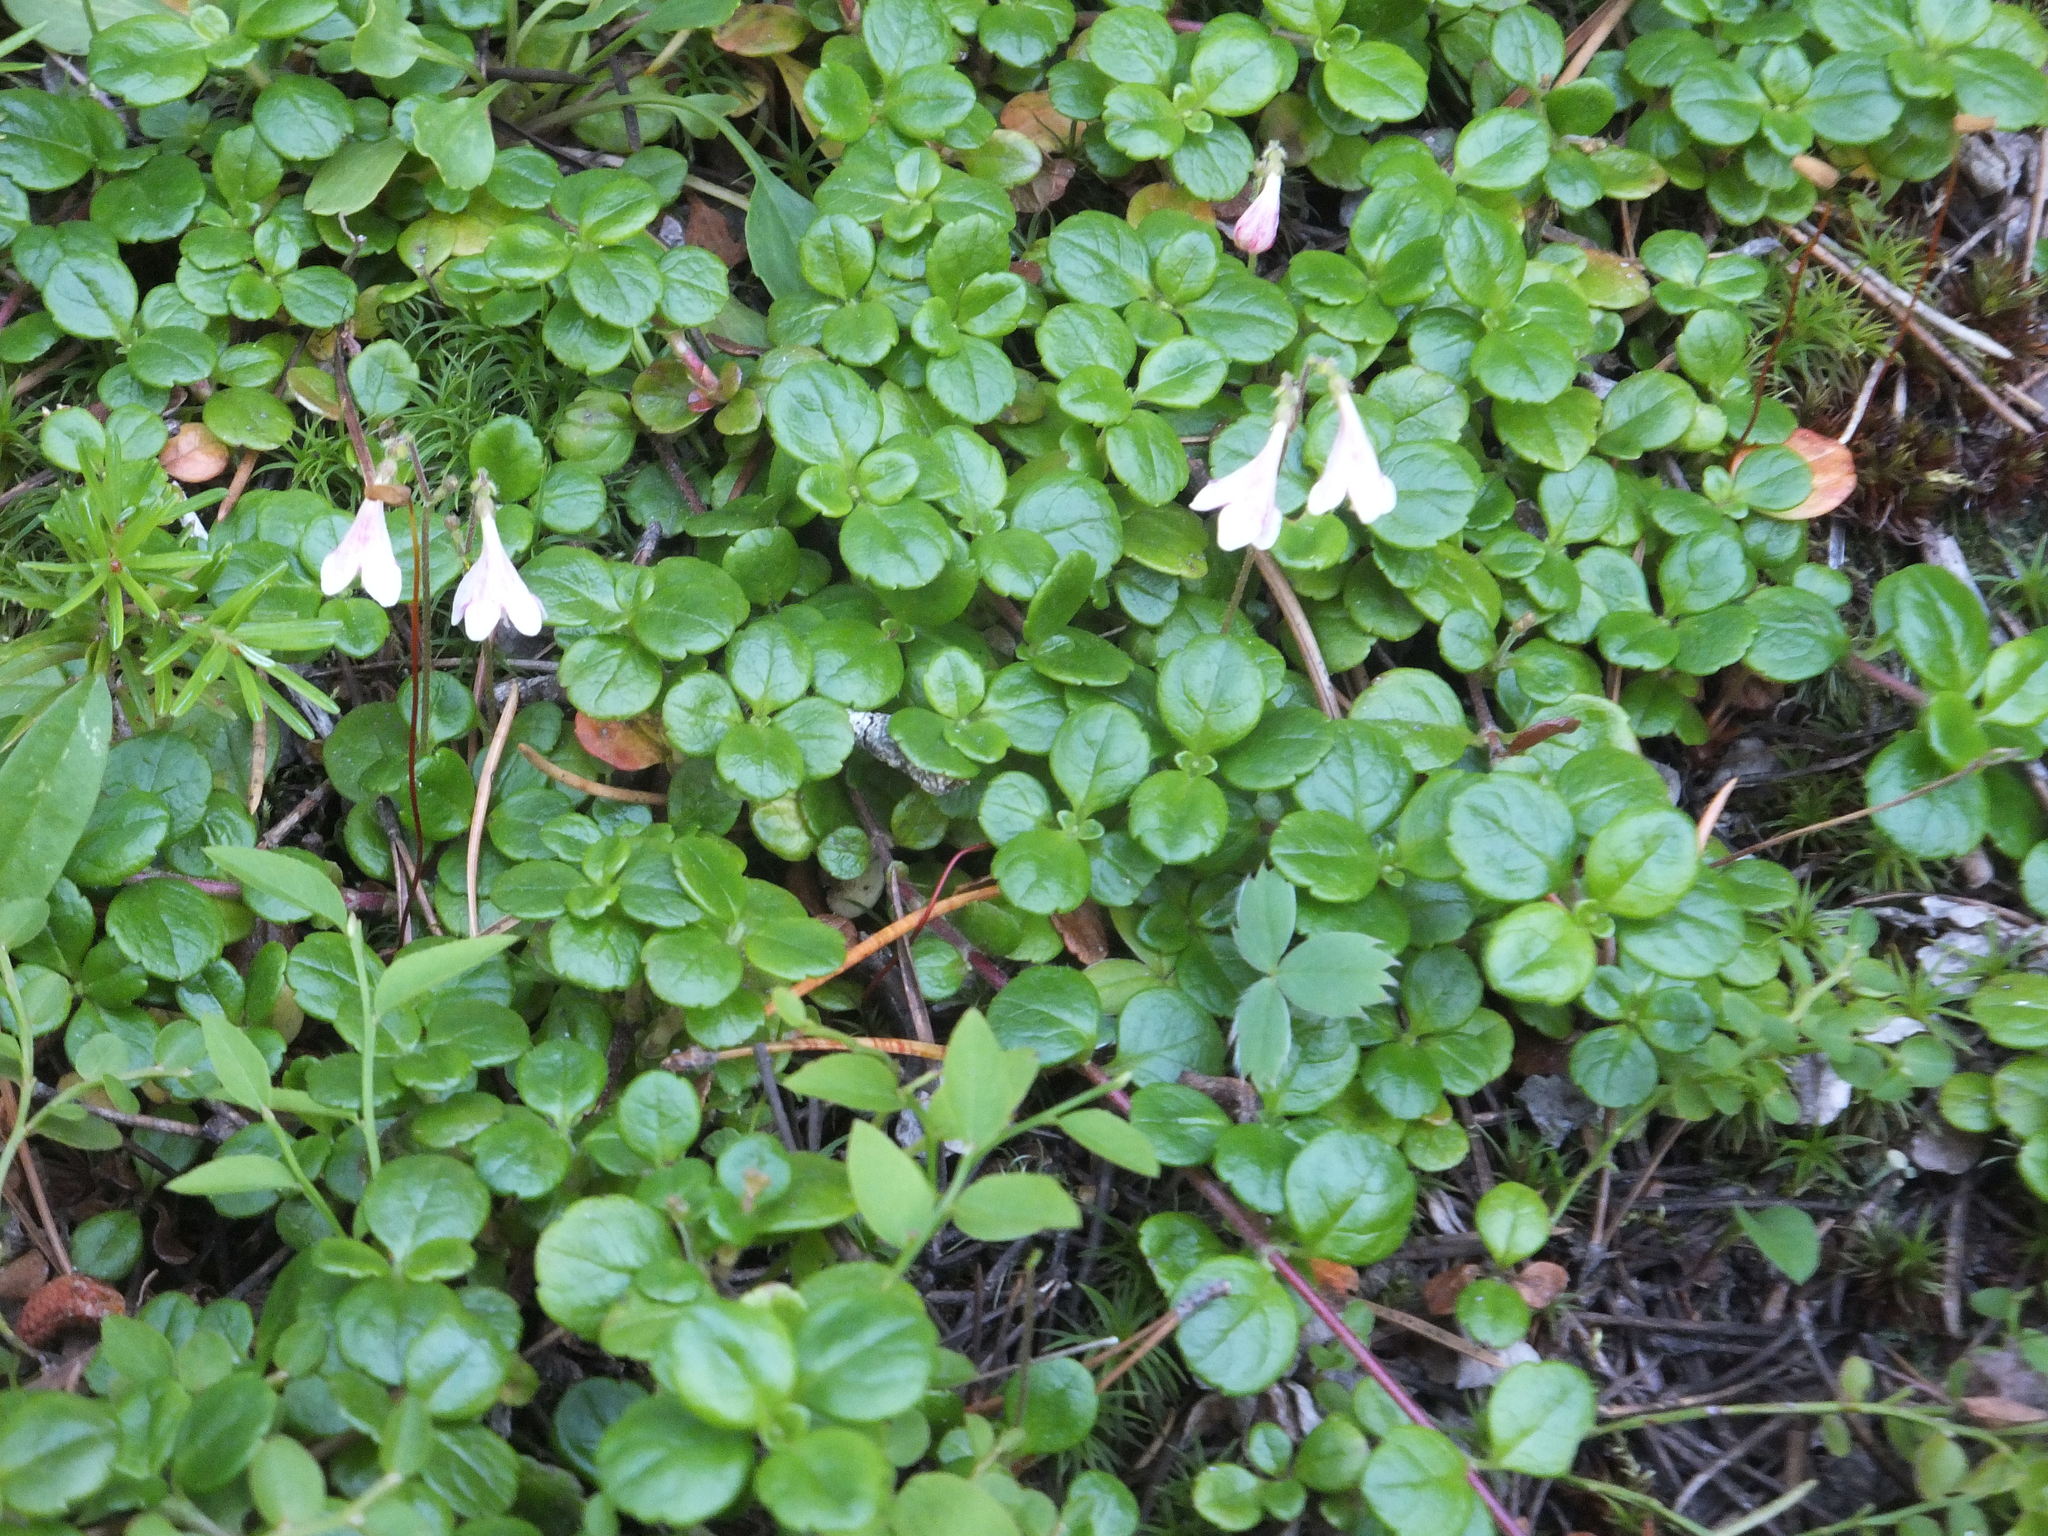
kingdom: Plantae
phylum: Tracheophyta
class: Magnoliopsida
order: Dipsacales
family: Caprifoliaceae
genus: Linnaea
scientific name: Linnaea borealis
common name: Twinflower
